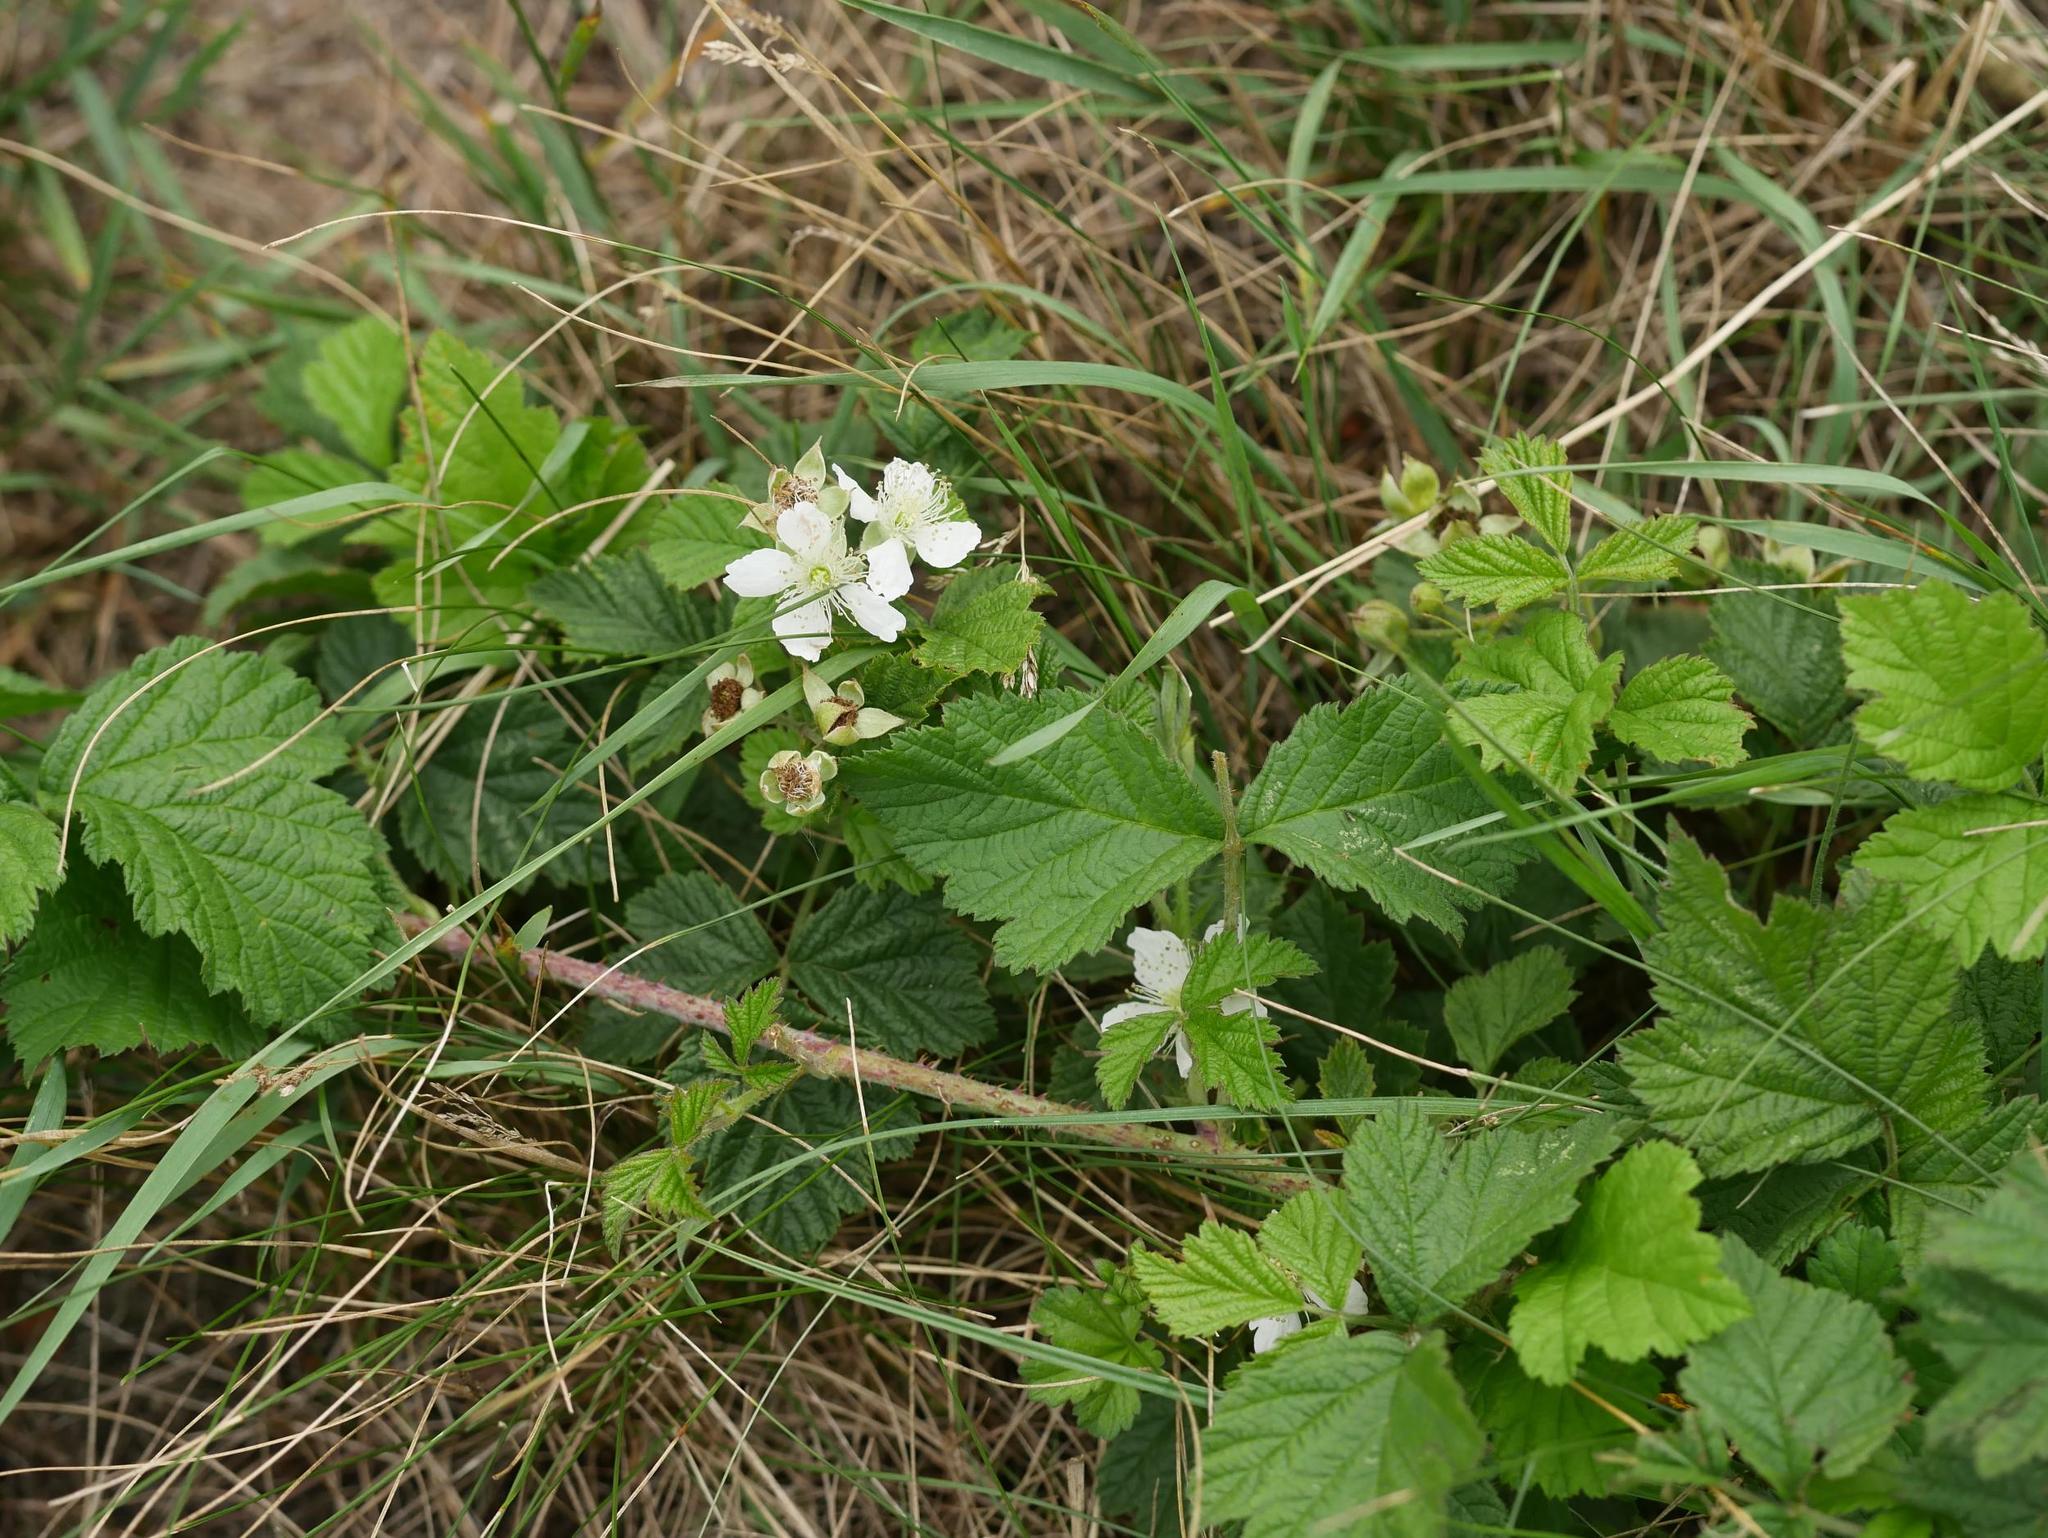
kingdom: Plantae
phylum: Tracheophyta
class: Magnoliopsida
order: Rosales
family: Rosaceae
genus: Rubus
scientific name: Rubus caesius
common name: Dewberry
